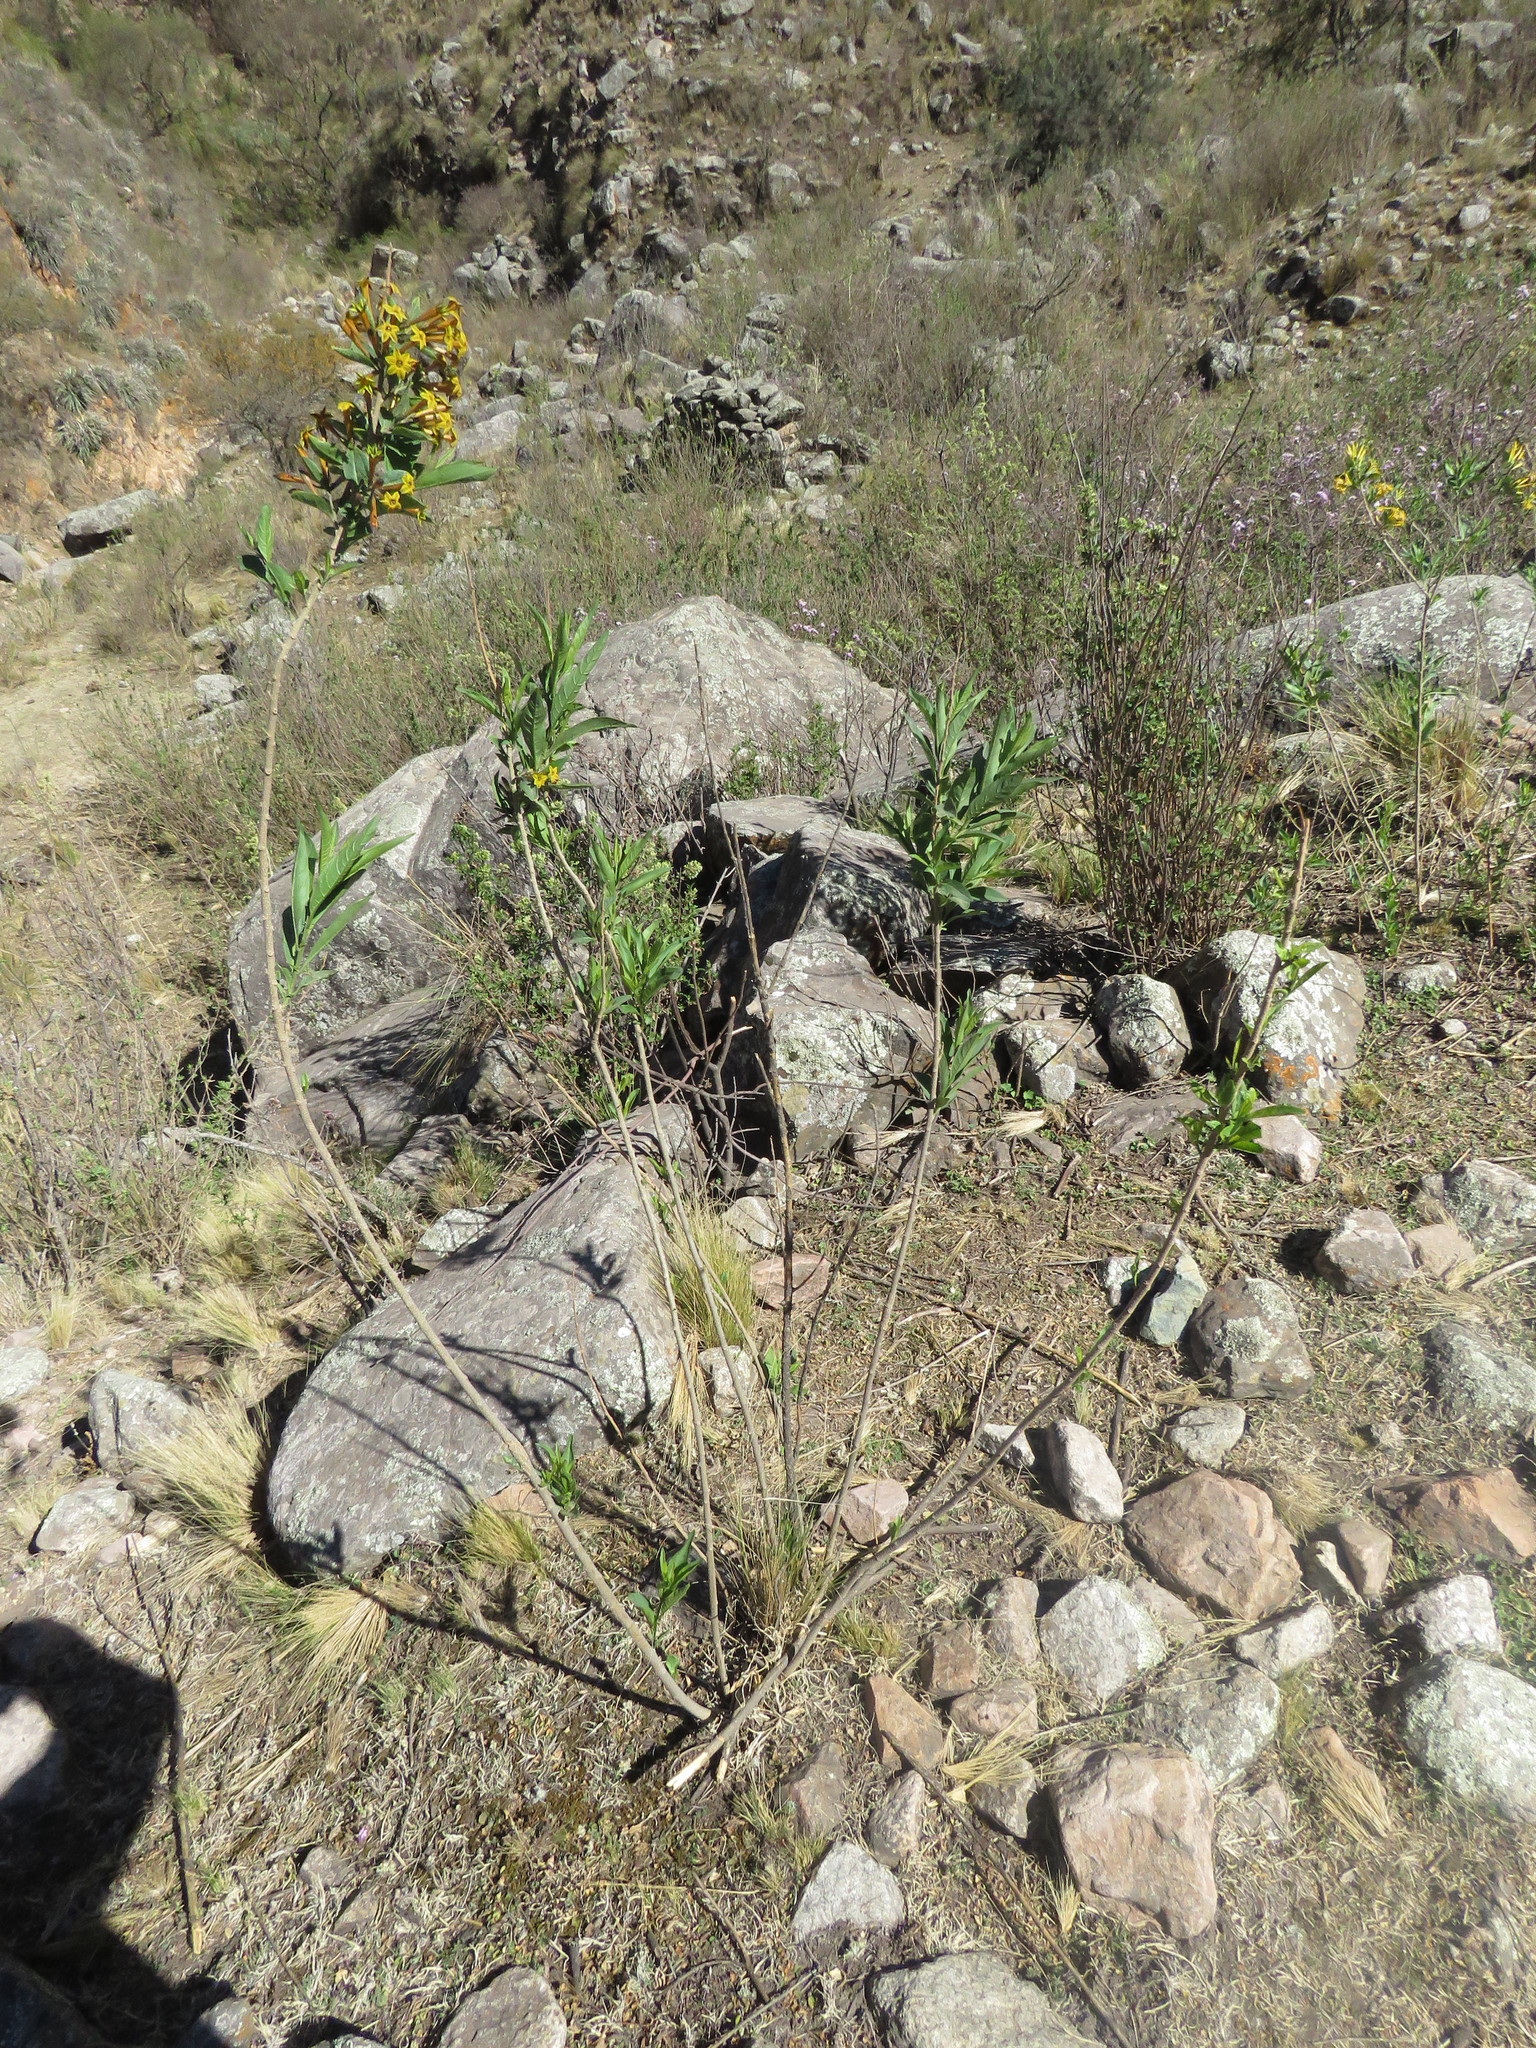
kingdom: Plantae
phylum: Tracheophyta
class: Magnoliopsida
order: Solanales
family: Solanaceae
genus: Cestrum
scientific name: Cestrum parqui
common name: Chilean cestrum
